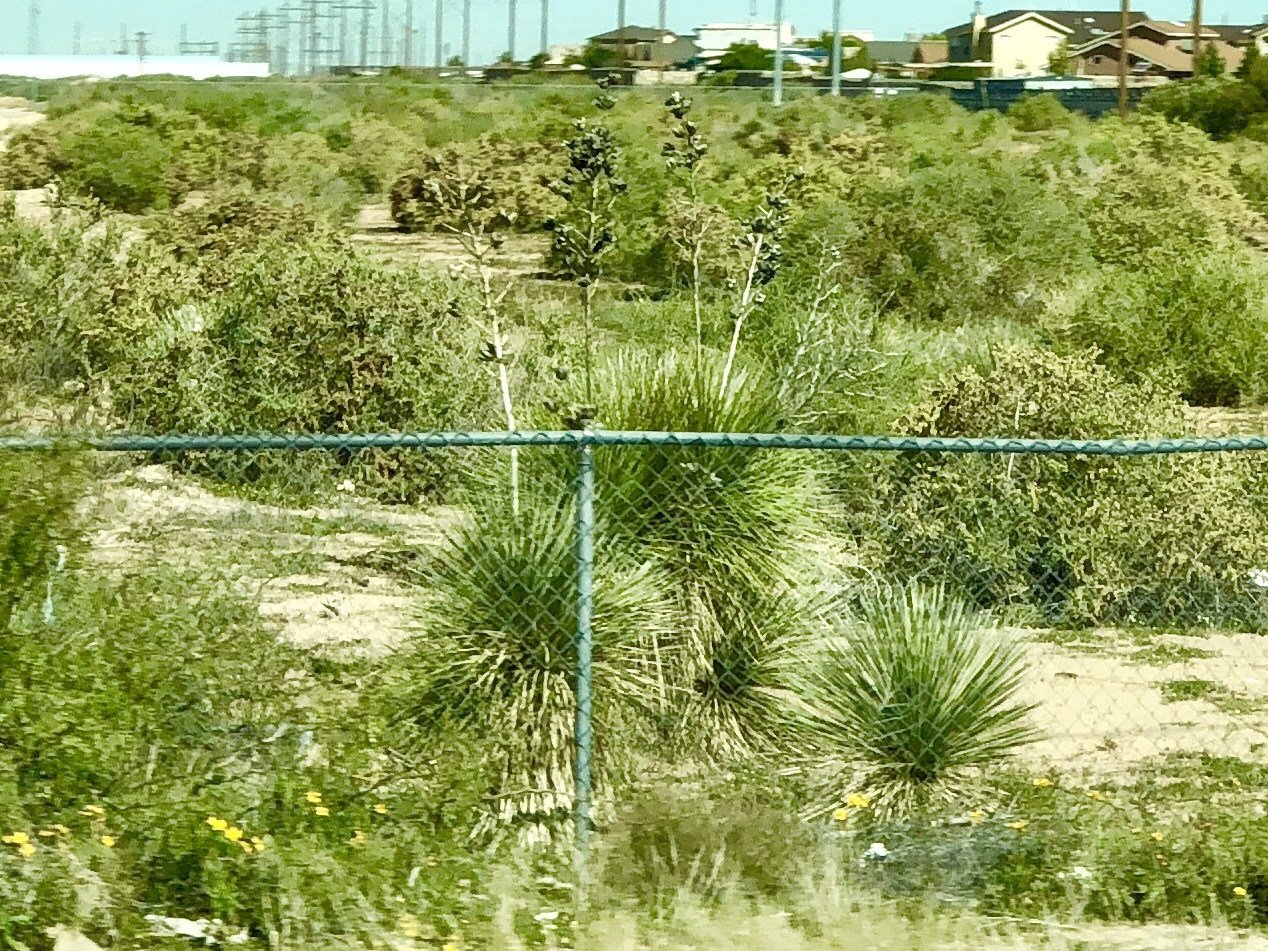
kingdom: Plantae
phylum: Tracheophyta
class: Liliopsida
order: Asparagales
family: Asparagaceae
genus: Yucca
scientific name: Yucca elata
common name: Palmella
